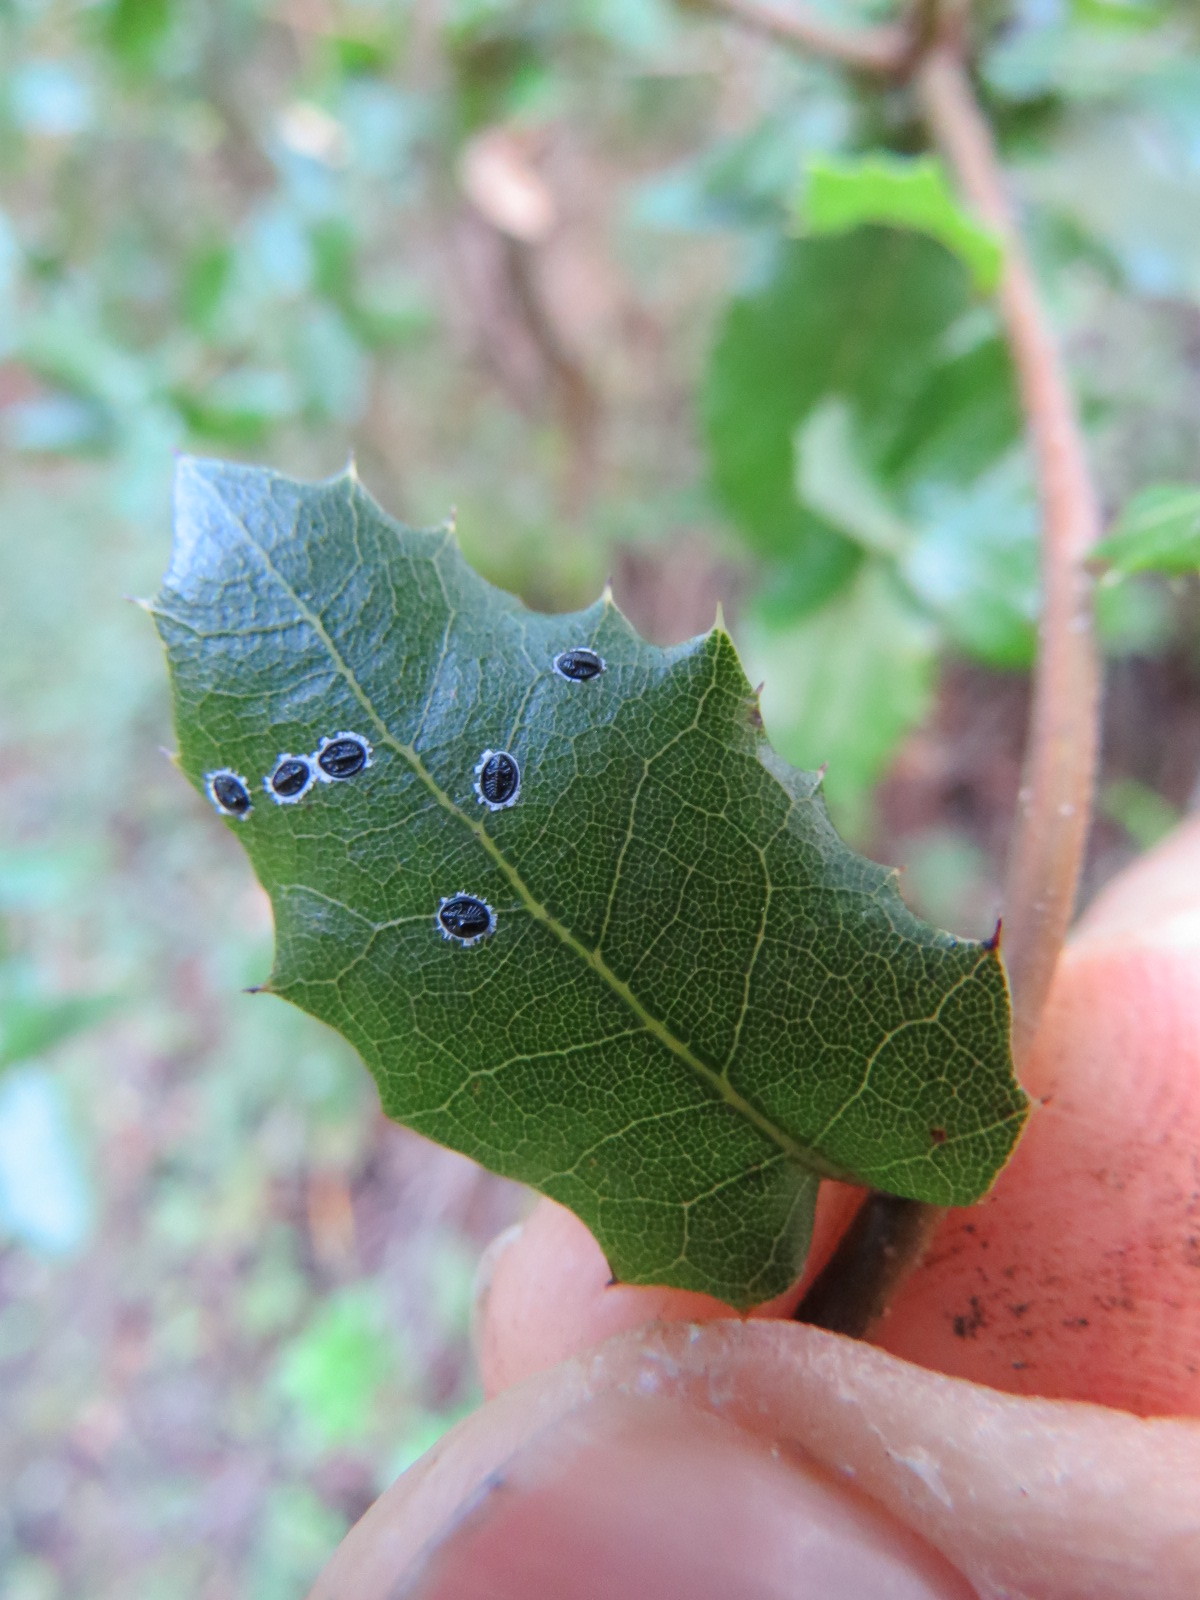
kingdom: Animalia
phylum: Arthropoda
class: Insecta
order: Hemiptera
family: Aleyrodidae
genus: Tetraleurodes
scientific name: Tetraleurodes perileuca
